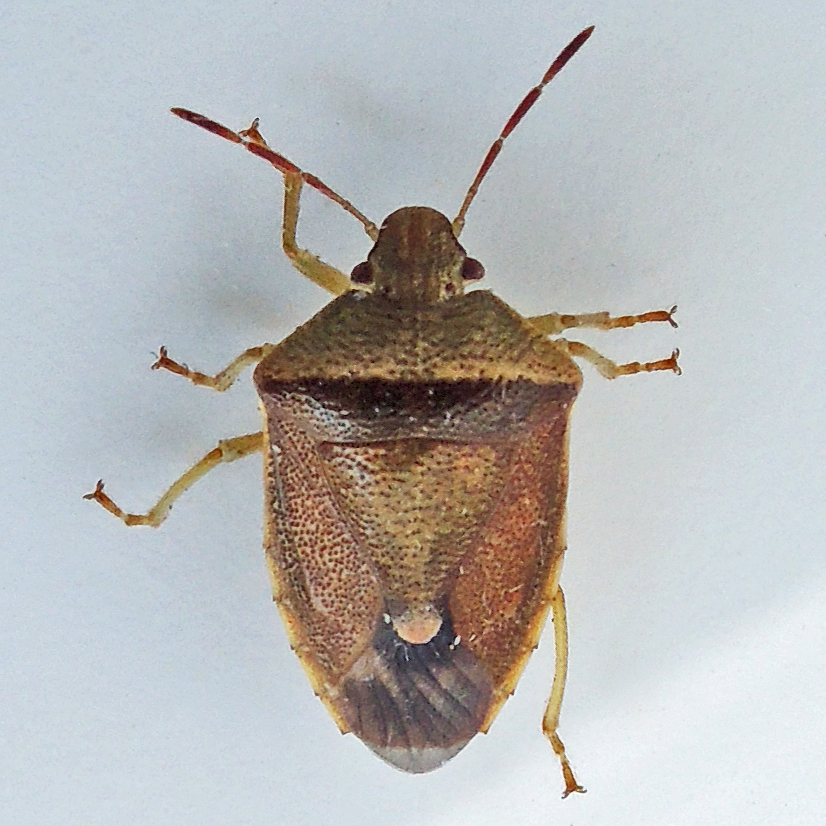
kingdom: Animalia
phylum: Arthropoda
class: Insecta
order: Hemiptera
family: Pentatomidae
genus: Banasa
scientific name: Banasa dimidiata
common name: Green burgundy stink bug
